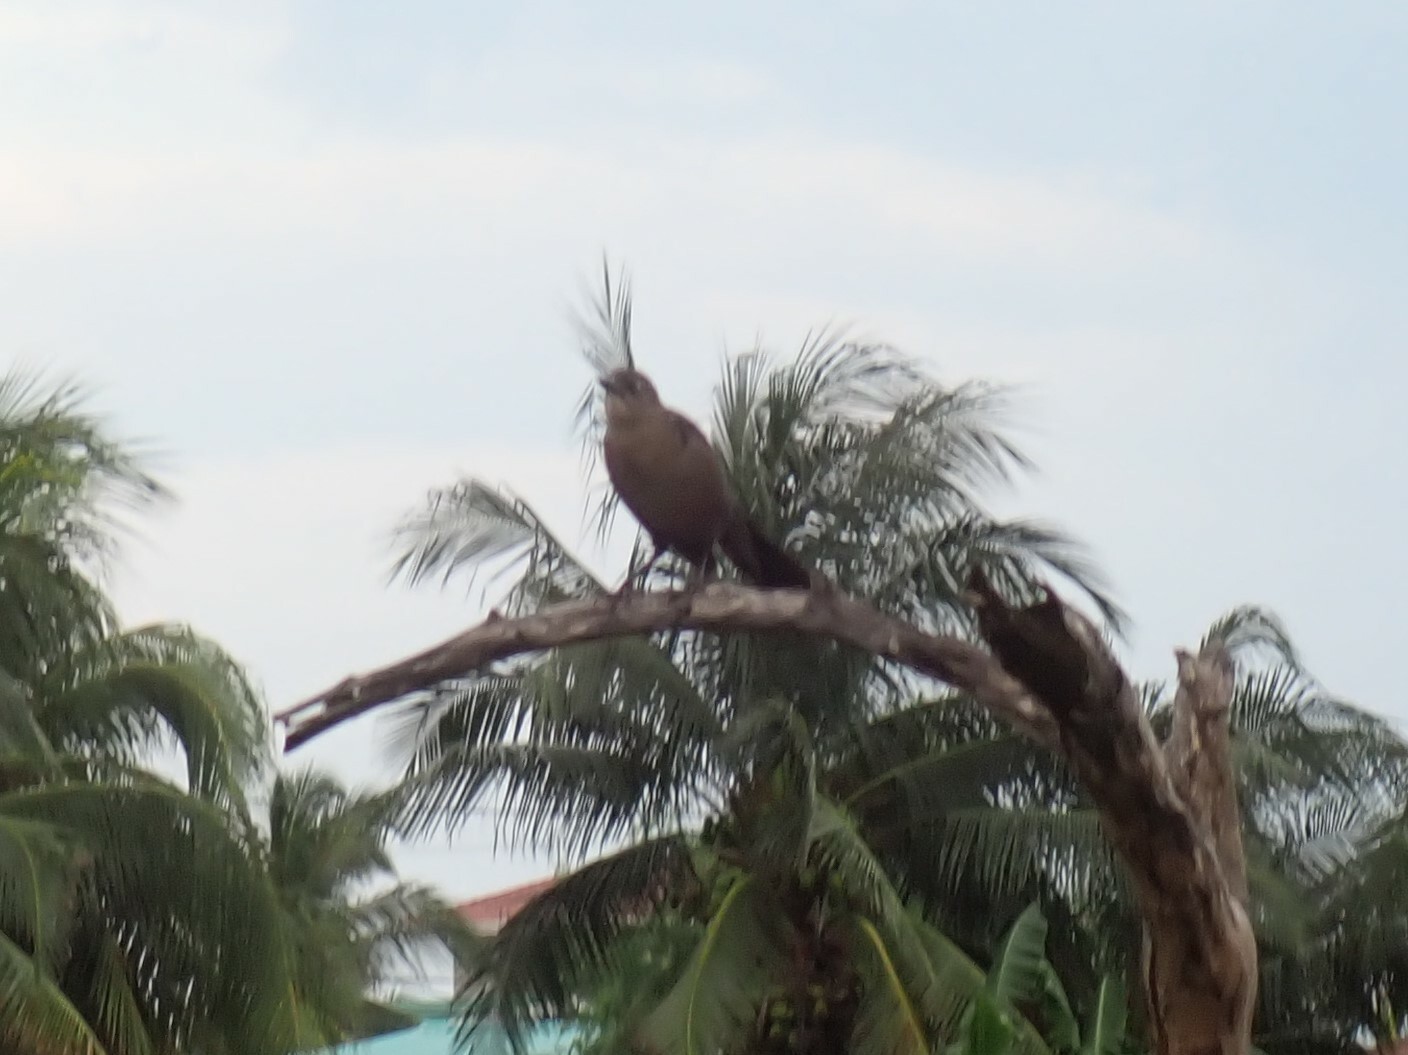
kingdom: Animalia
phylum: Chordata
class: Aves
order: Passeriformes
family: Icteridae
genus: Quiscalus
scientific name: Quiscalus mexicanus
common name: Great-tailed grackle
